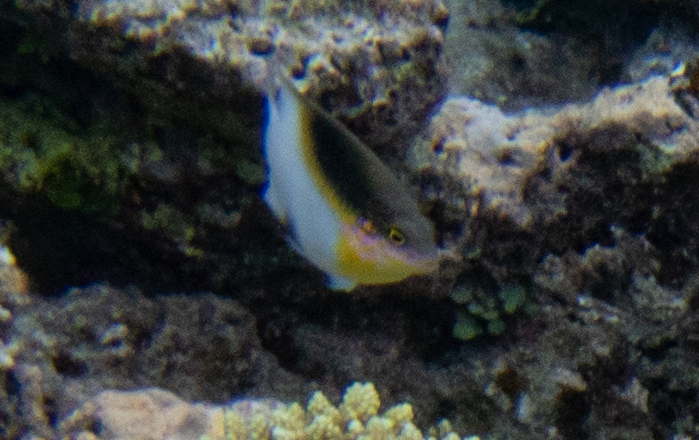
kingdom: Animalia
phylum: Chordata
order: Perciformes
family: Pomacentridae
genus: Dischistodus
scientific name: Dischistodus melanotus
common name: Black-vent damsel
